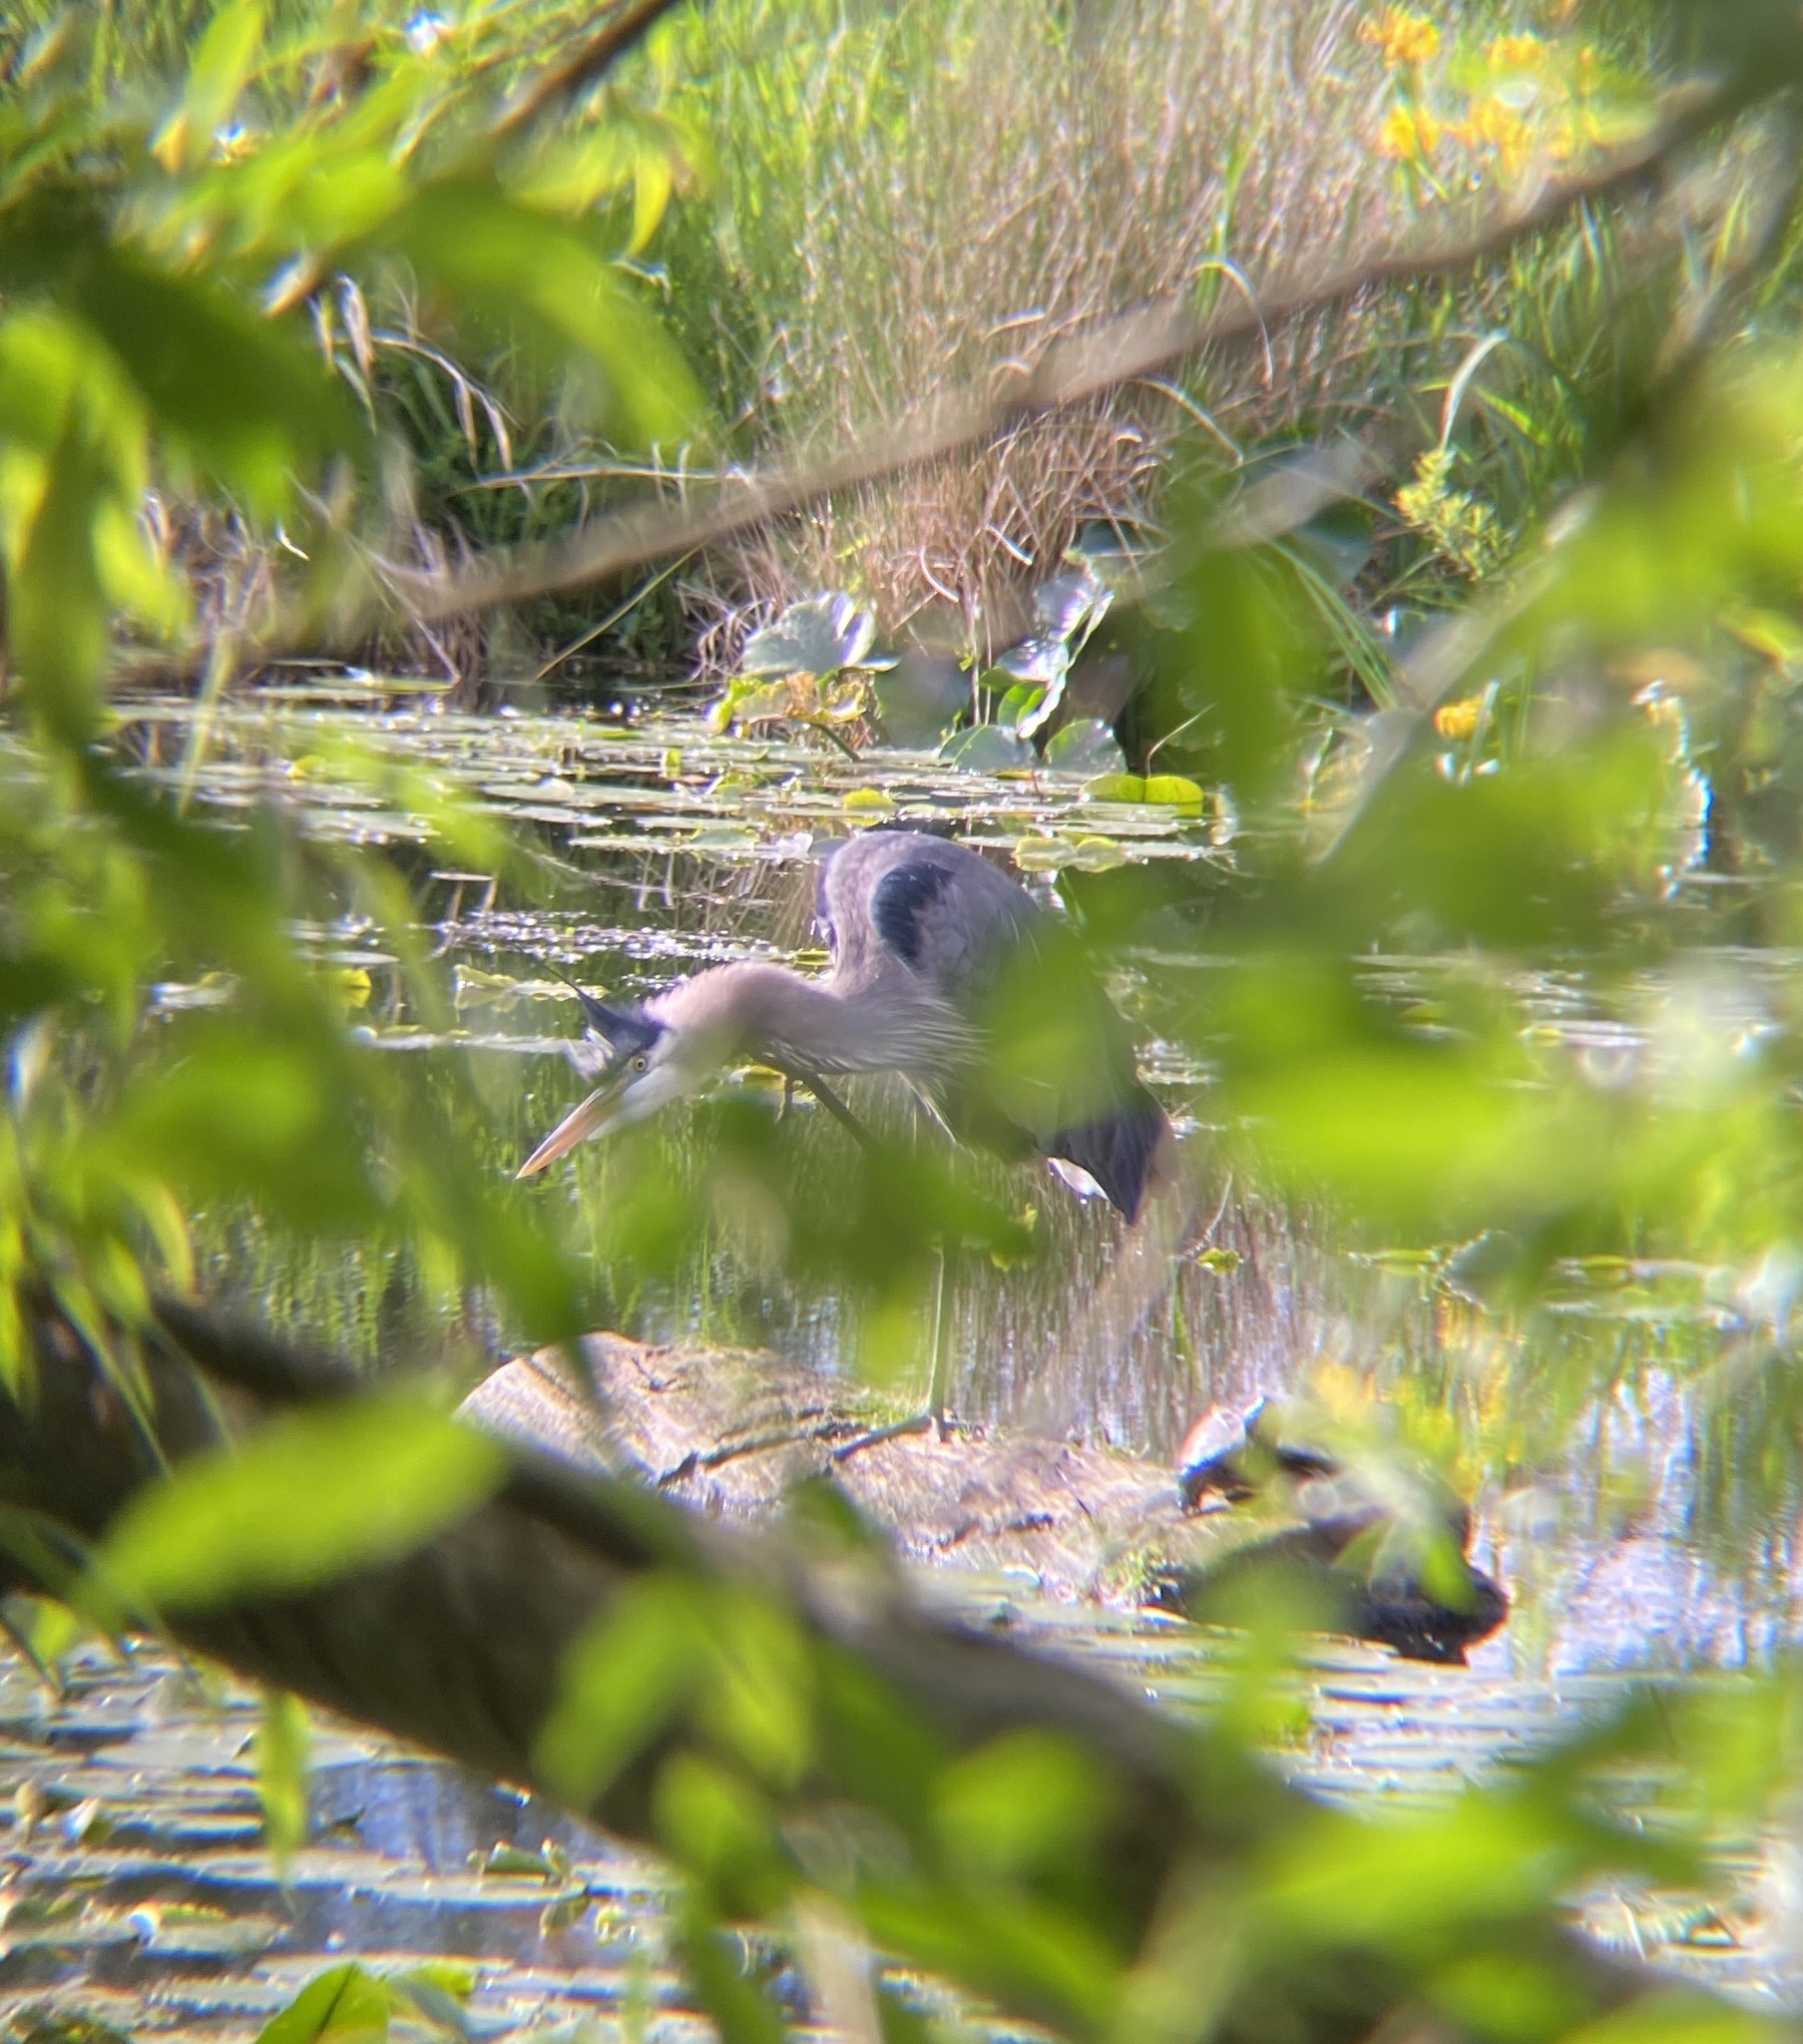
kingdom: Animalia
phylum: Chordata
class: Aves
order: Pelecaniformes
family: Ardeidae
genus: Ardea
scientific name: Ardea herodias
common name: Great blue heron
